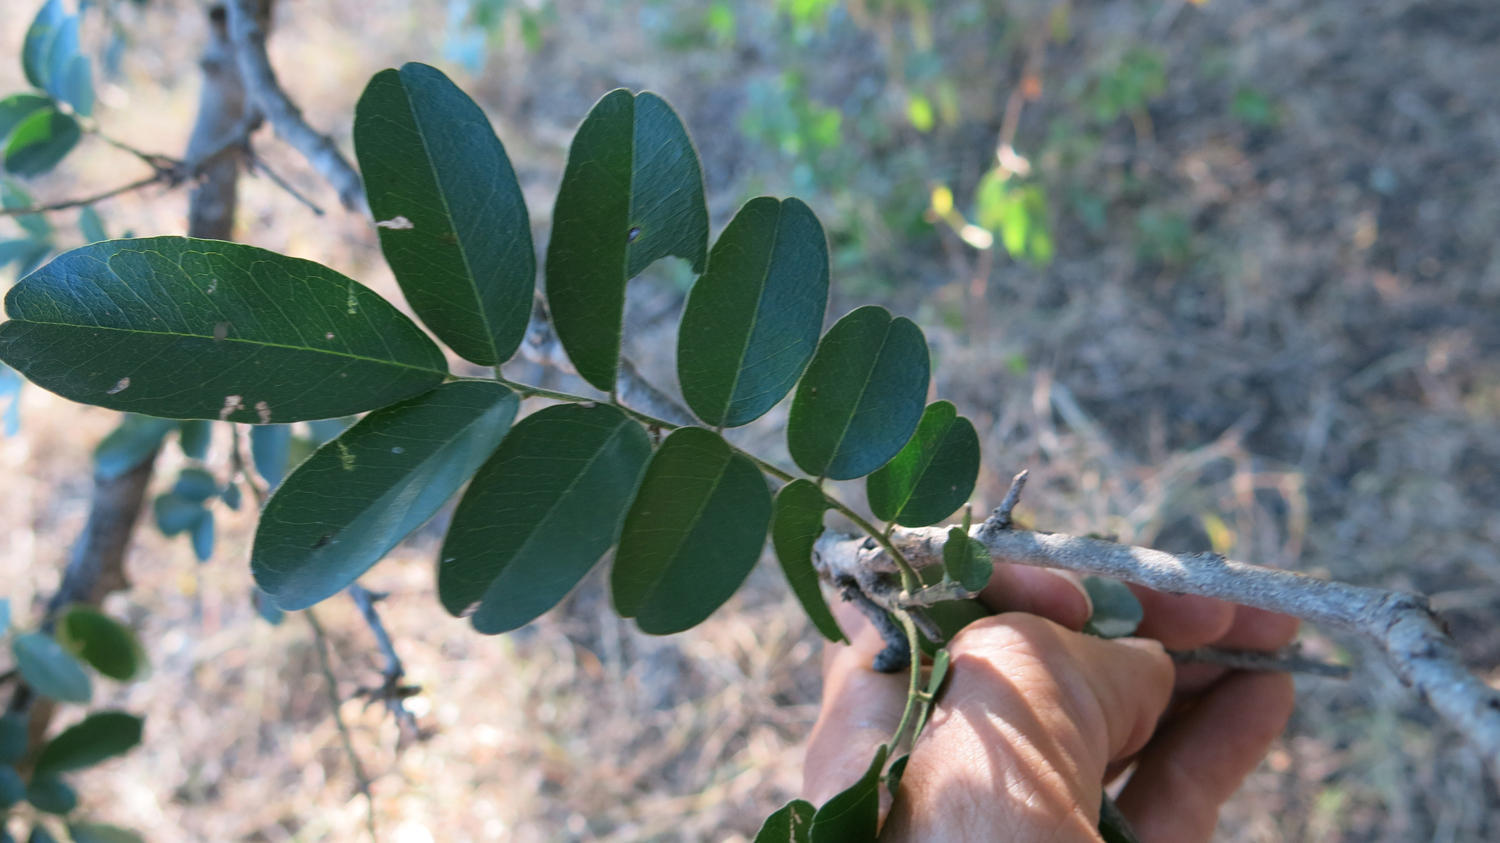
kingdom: Plantae
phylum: Tracheophyta
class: Magnoliopsida
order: Fabales
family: Fabaceae
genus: Xanthocercis
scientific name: Xanthocercis zambesiaca
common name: Nyala-tree
